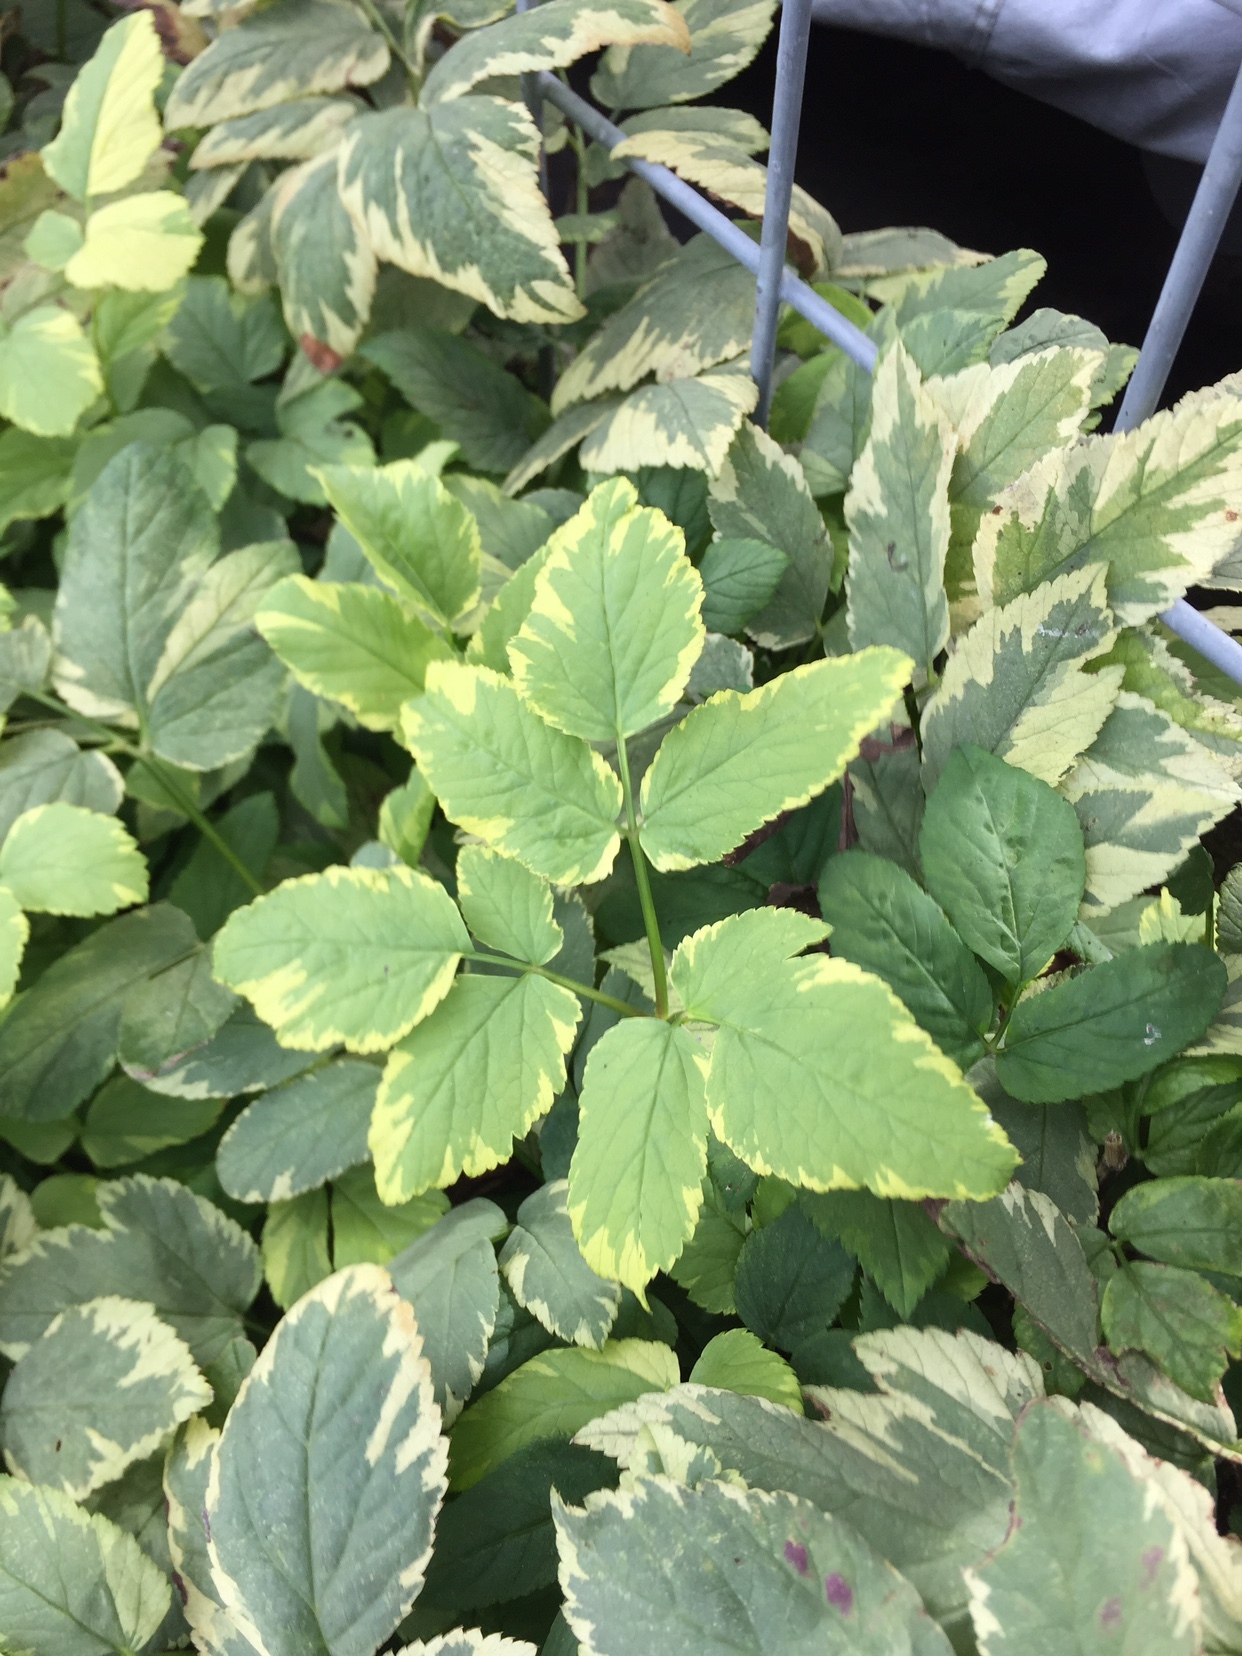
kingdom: Plantae
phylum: Tracheophyta
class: Magnoliopsida
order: Apiales
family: Apiaceae
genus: Aegopodium
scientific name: Aegopodium podagraria
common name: Ground-elder
